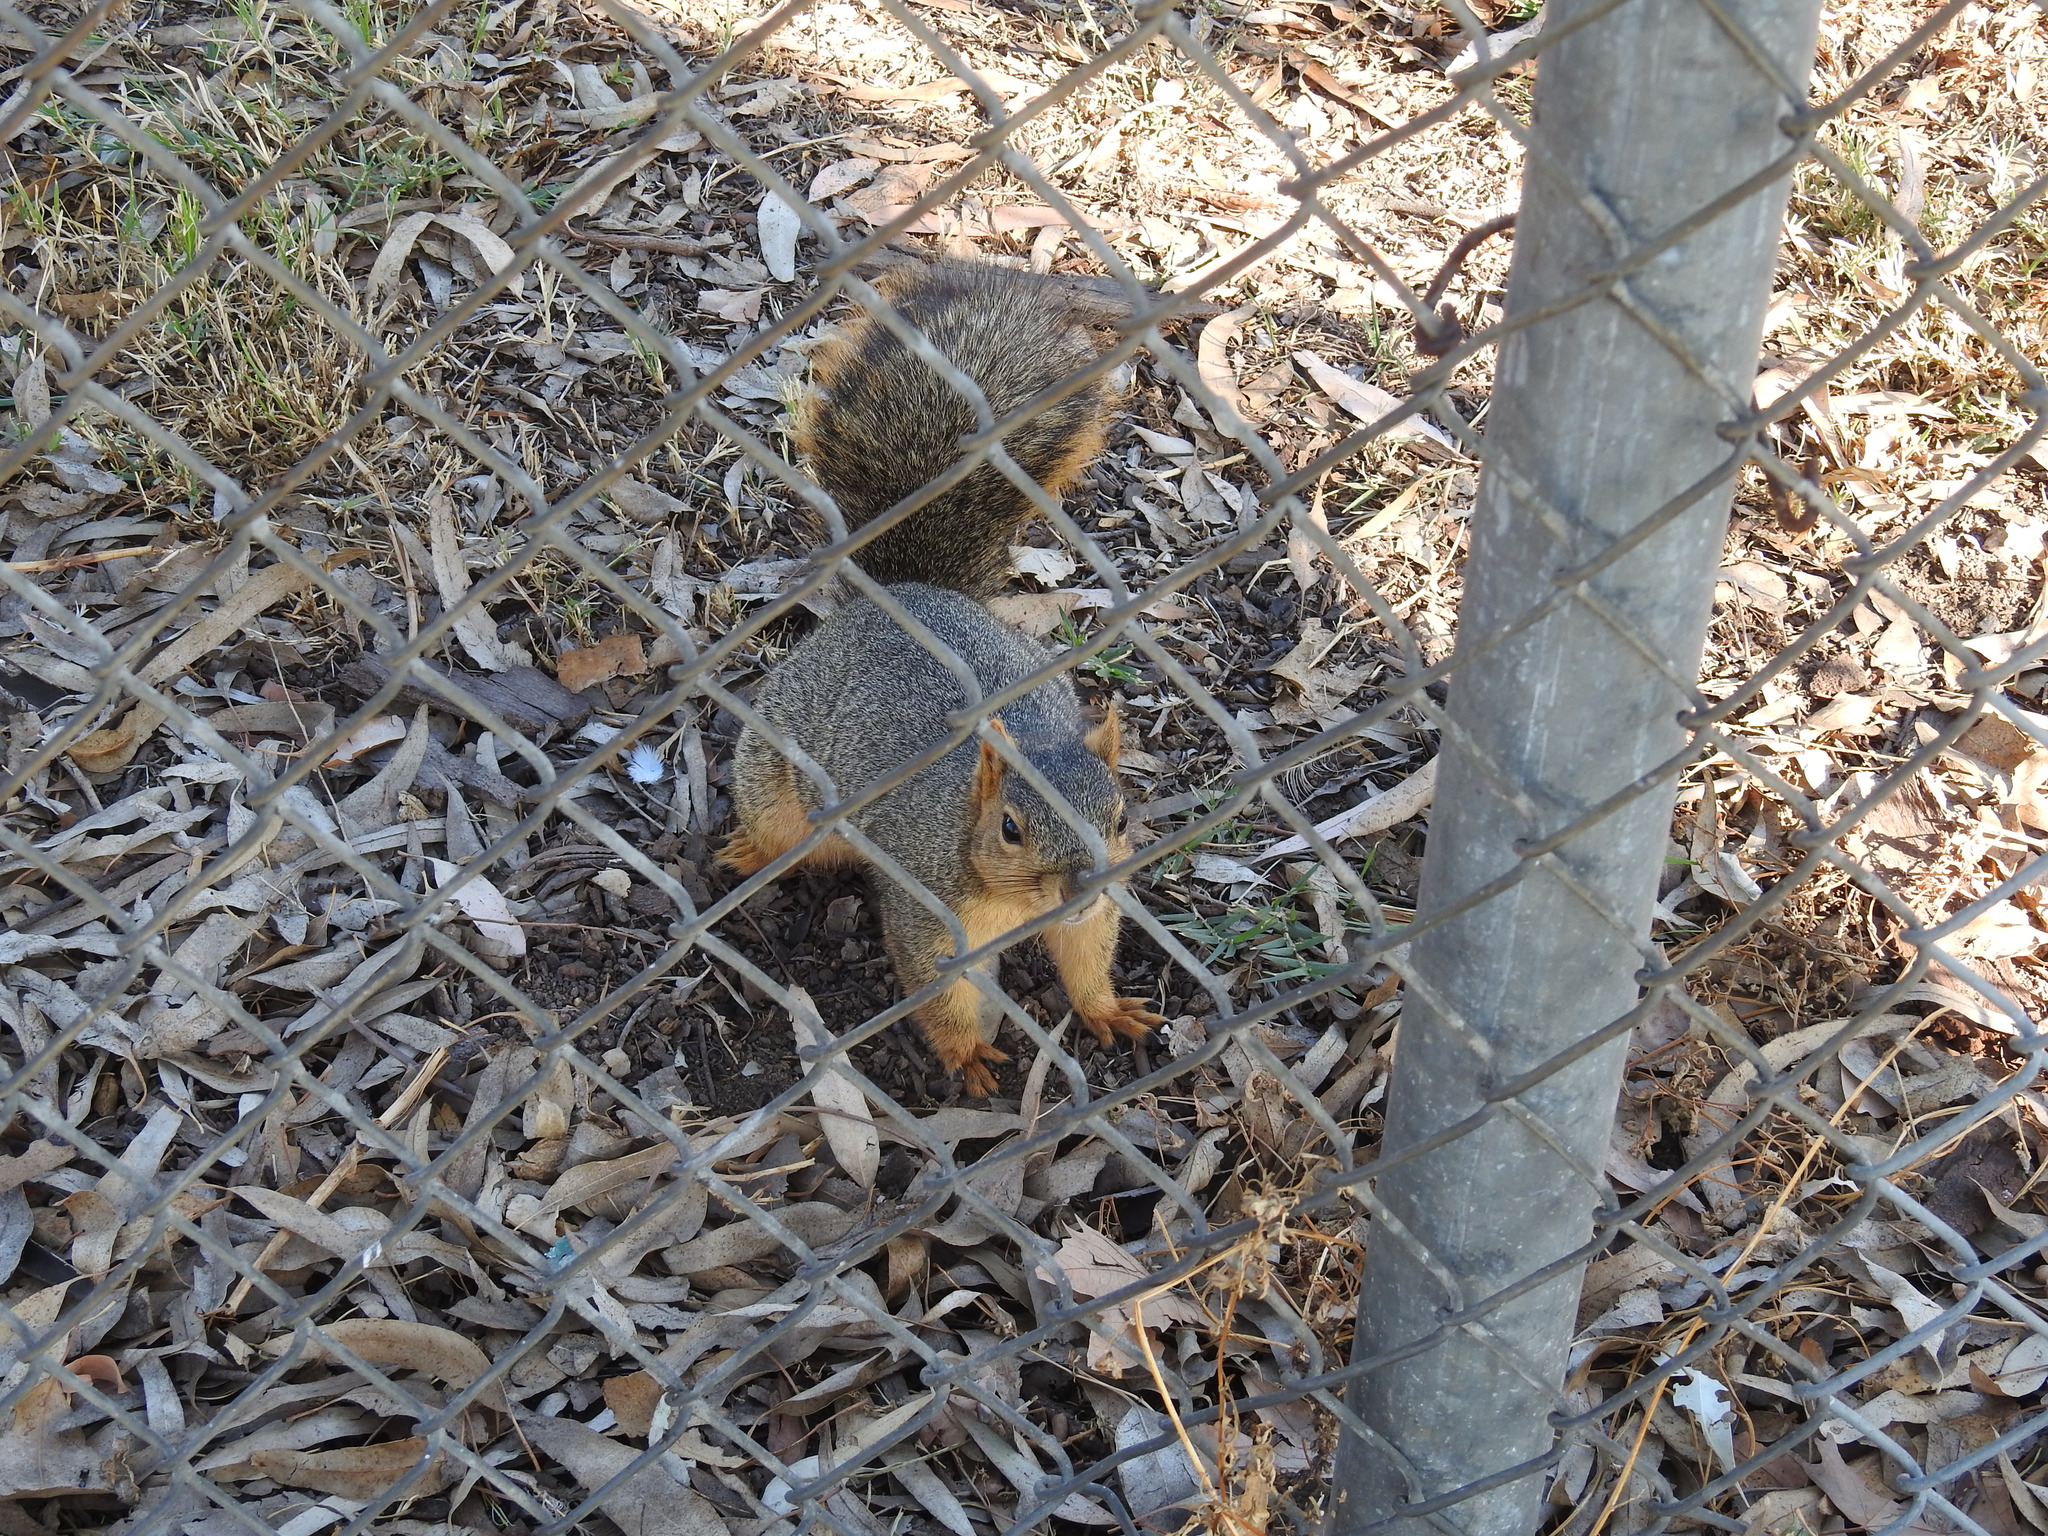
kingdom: Animalia
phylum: Chordata
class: Mammalia
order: Rodentia
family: Sciuridae
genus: Sciurus
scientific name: Sciurus niger
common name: Fox squirrel
